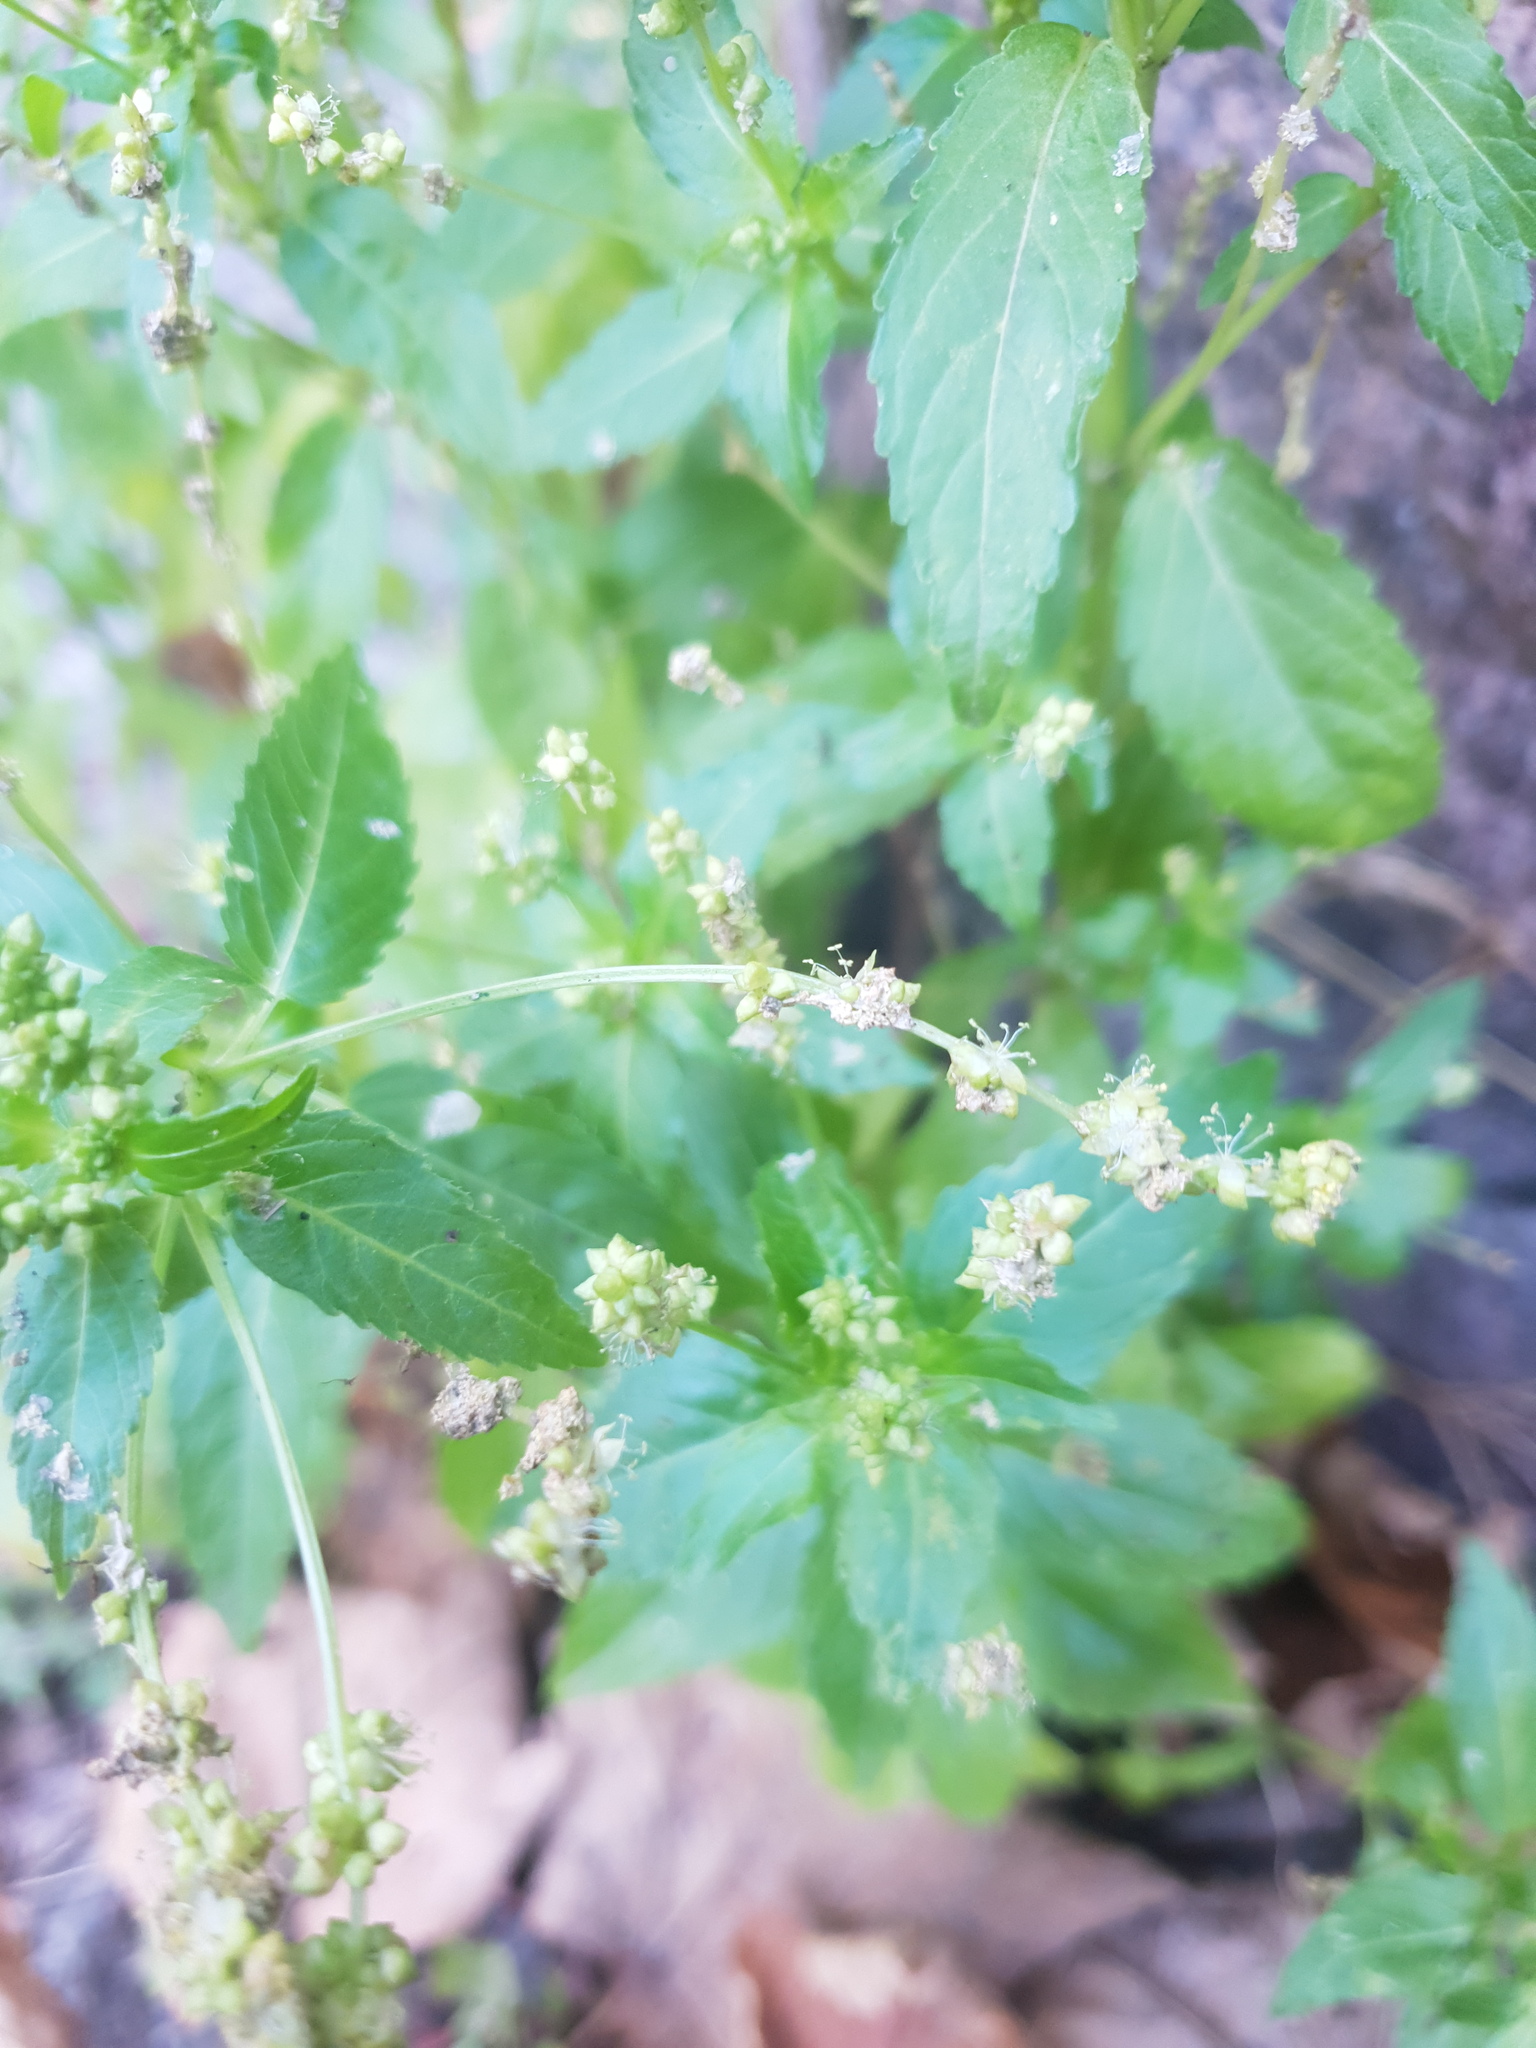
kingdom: Plantae
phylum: Tracheophyta
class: Magnoliopsida
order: Malpighiales
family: Euphorbiaceae
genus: Mercurialis
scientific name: Mercurialis annua
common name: Annual mercury
